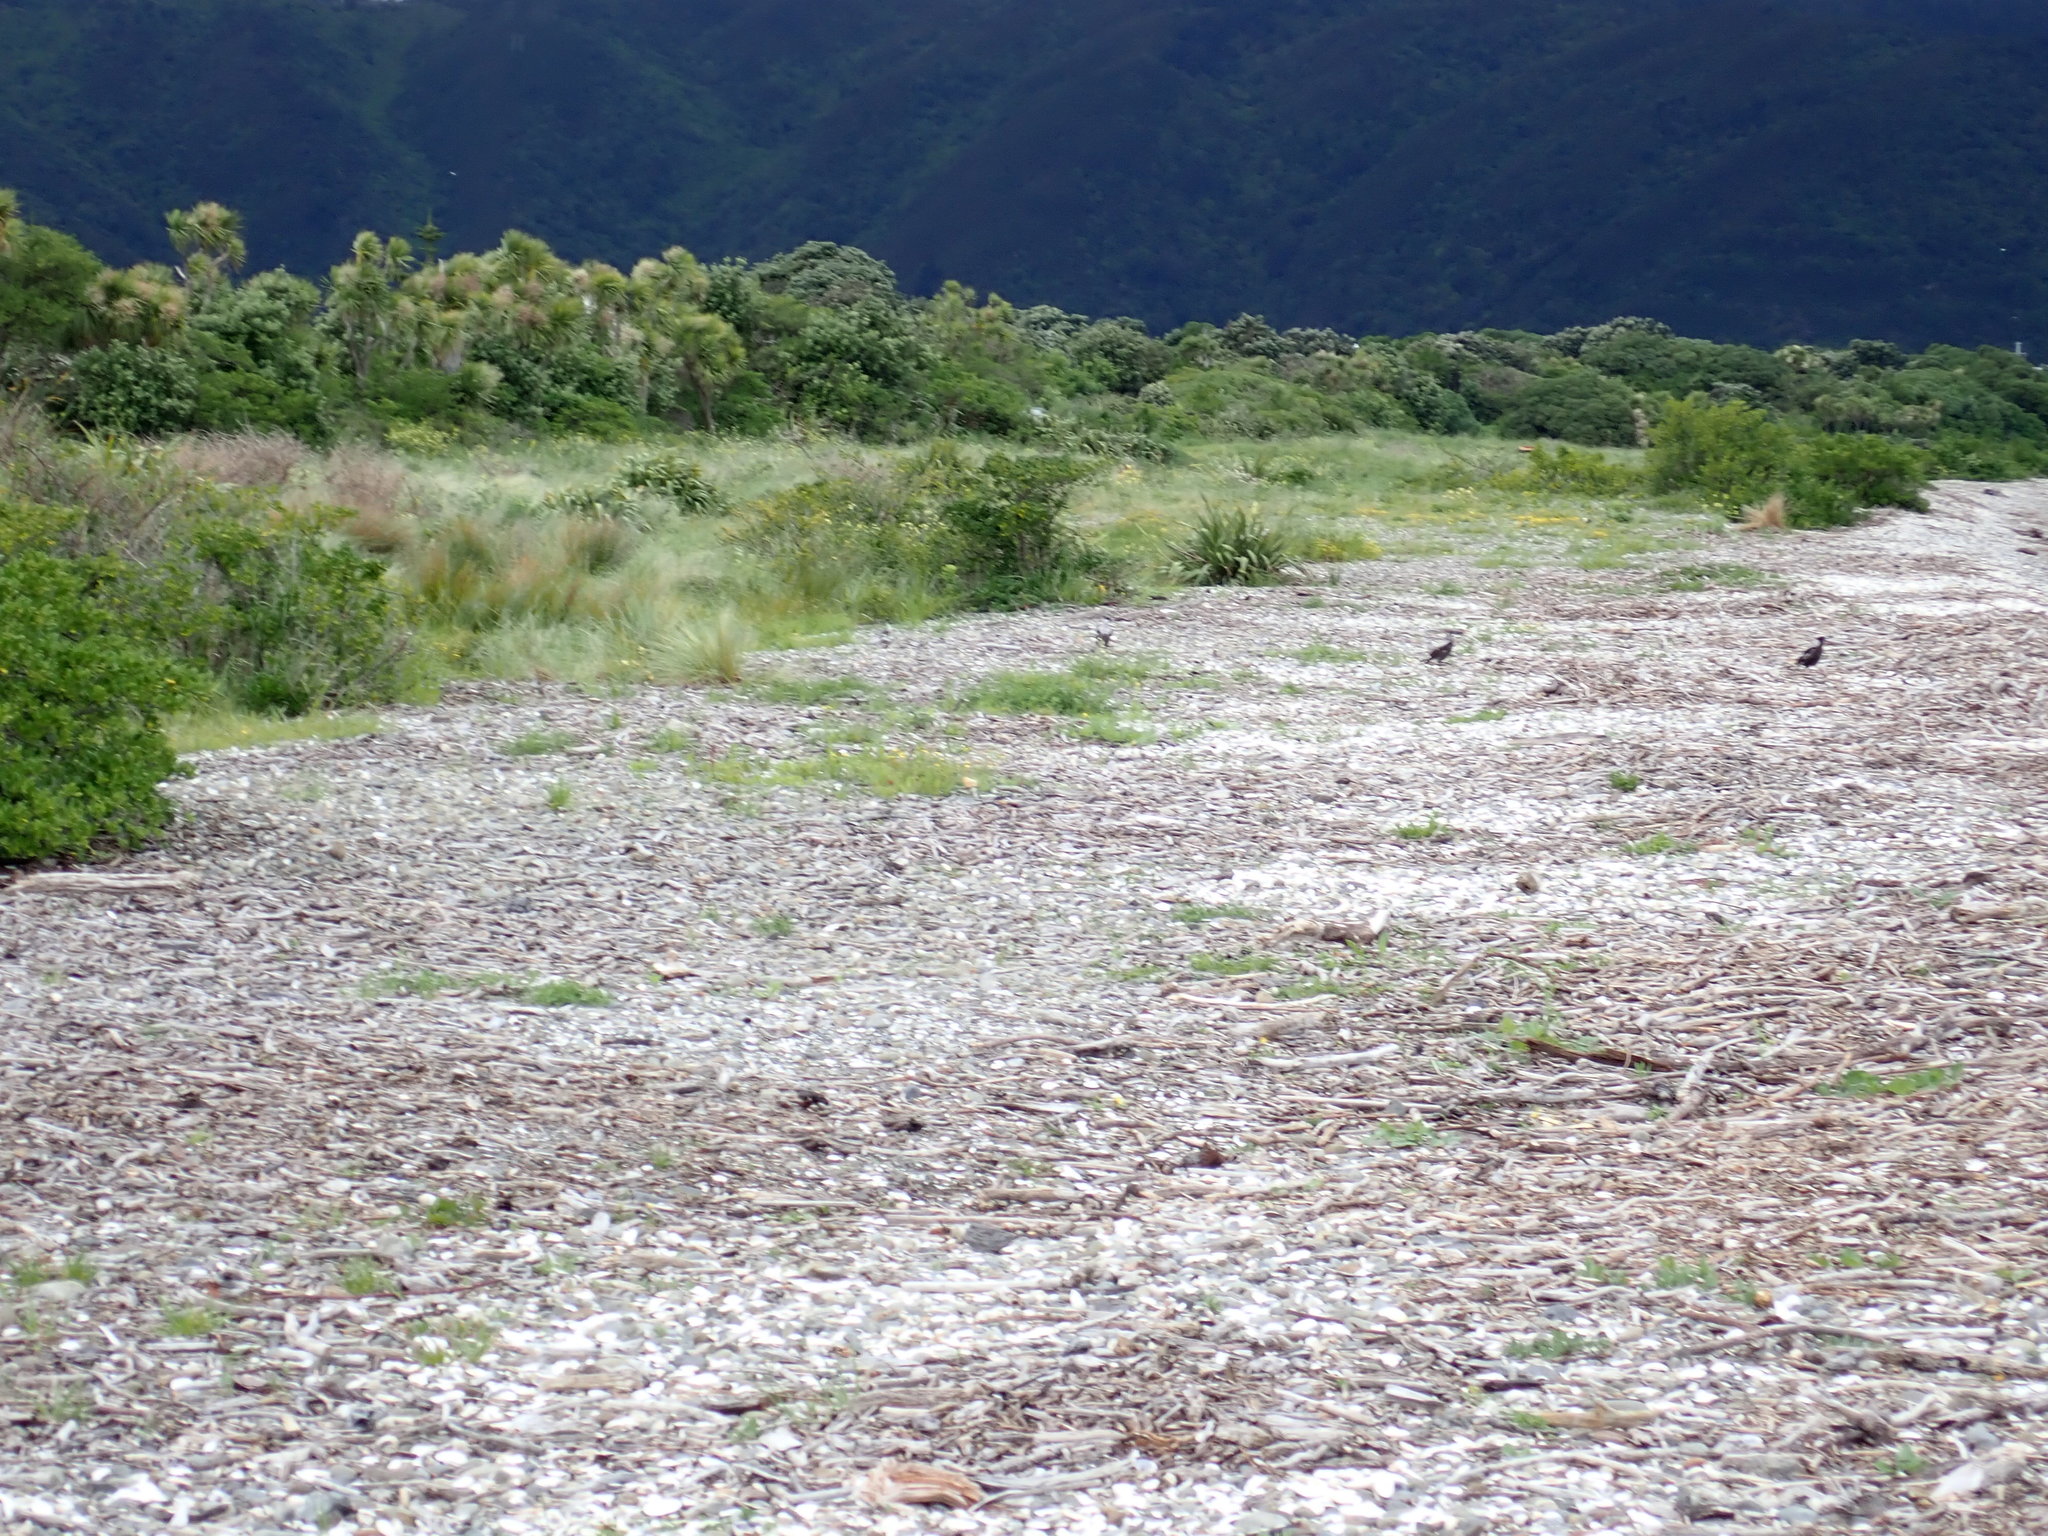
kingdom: Animalia
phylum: Chordata
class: Aves
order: Passeriformes
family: Cracticidae
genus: Gymnorhina
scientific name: Gymnorhina tibicen
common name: Australian magpie
